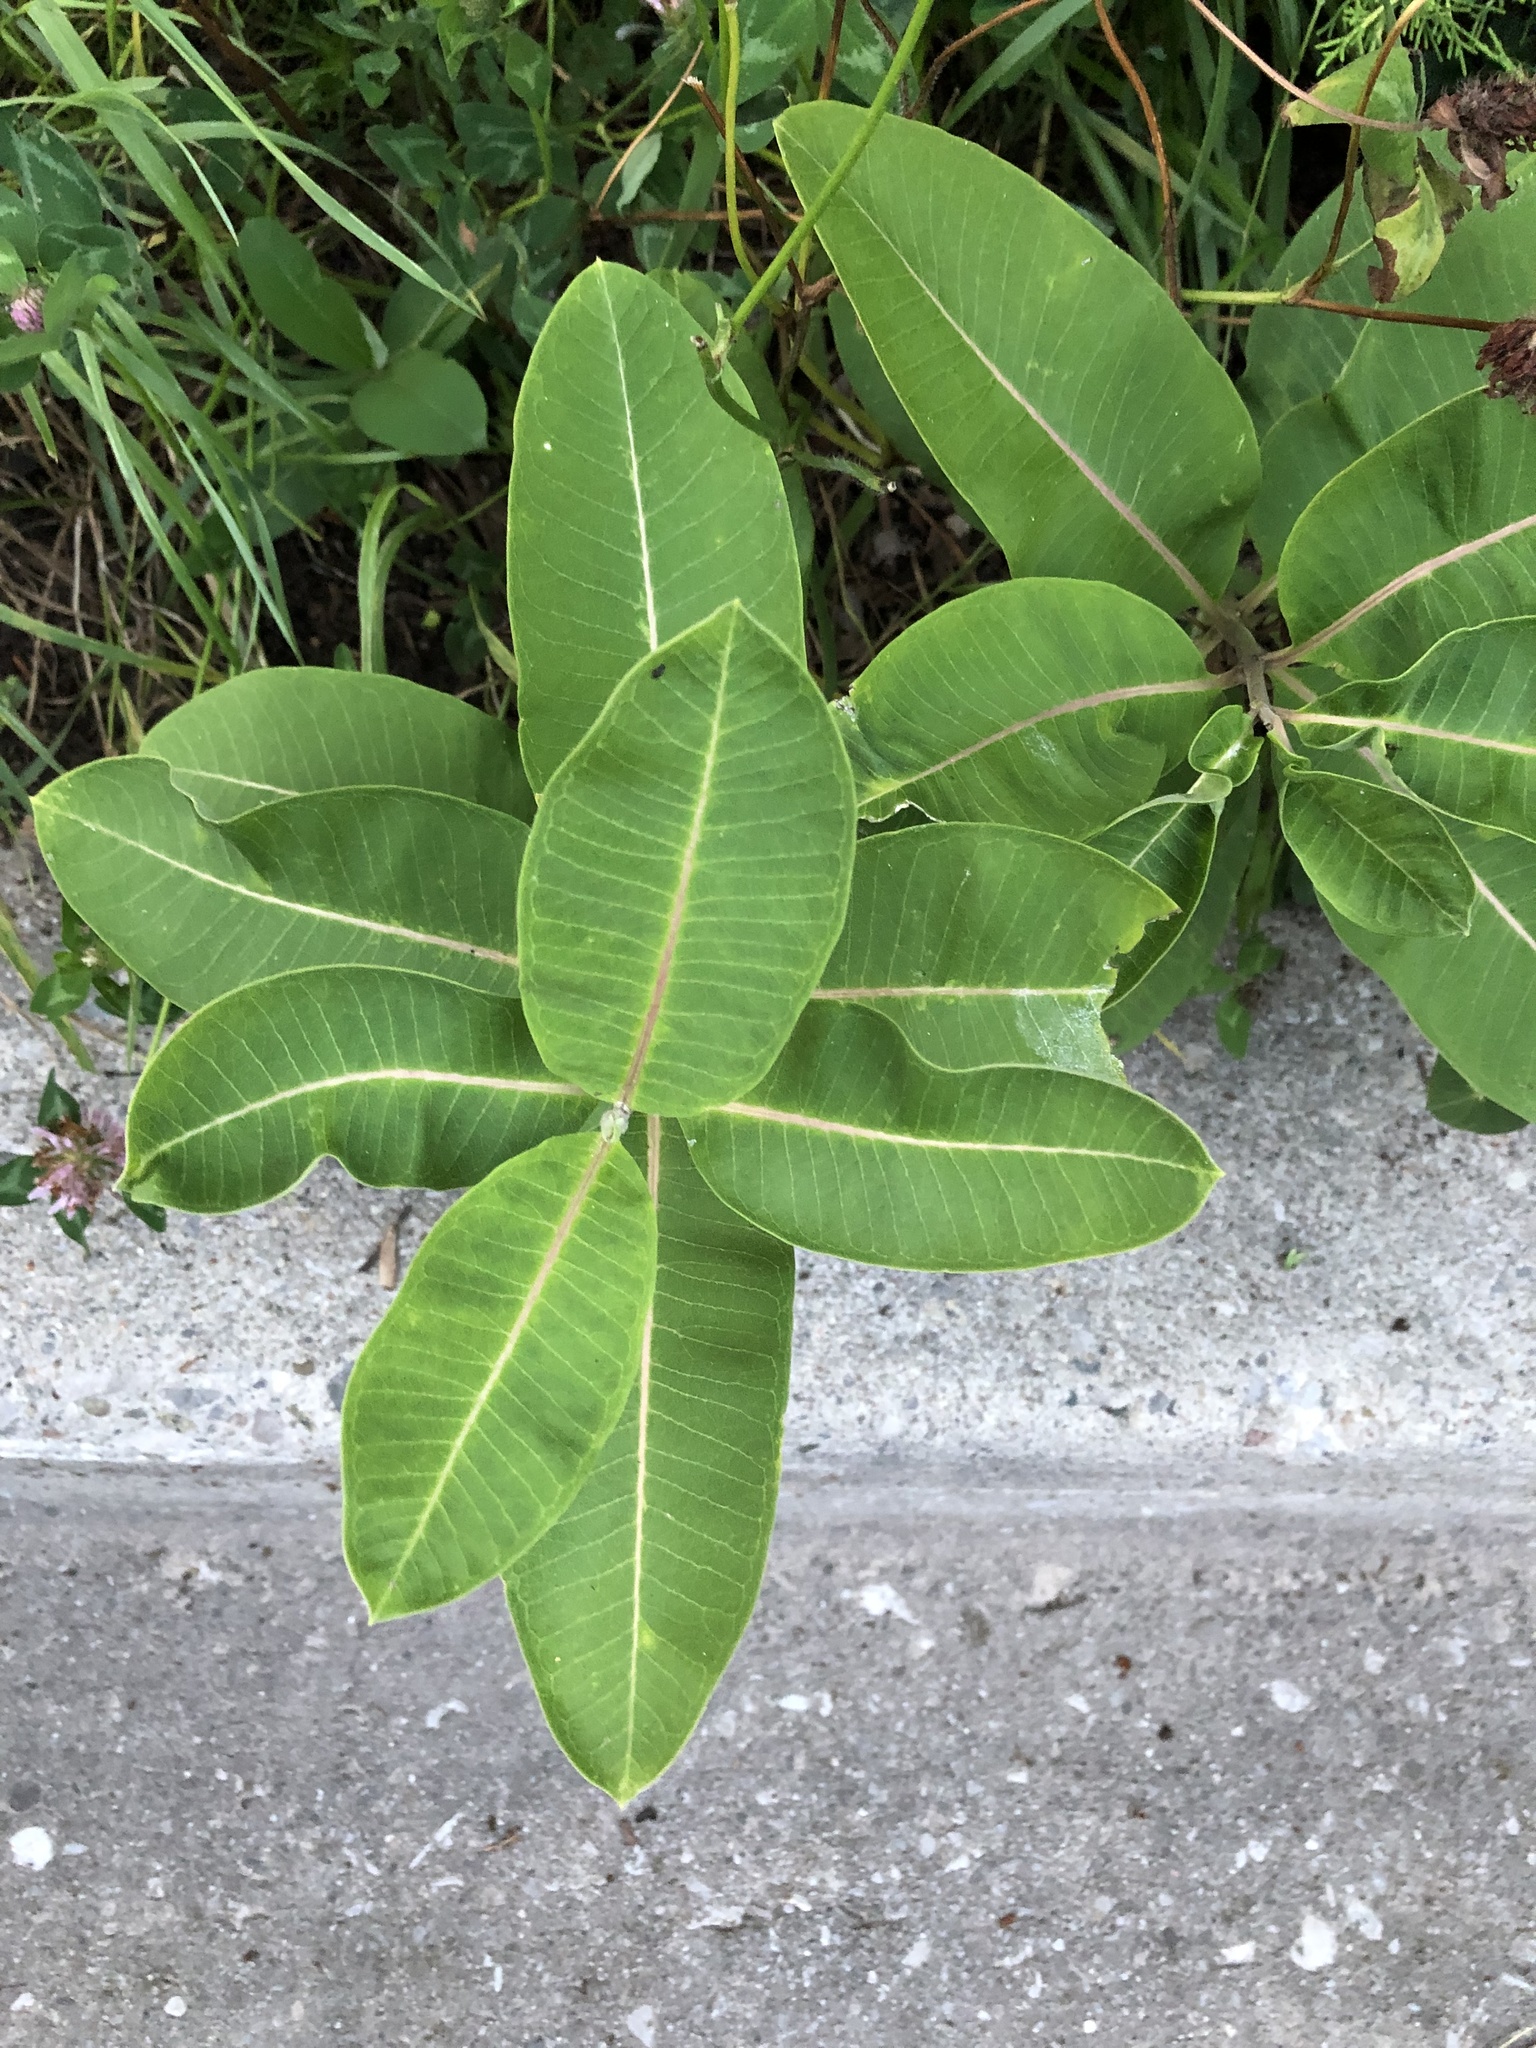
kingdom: Plantae
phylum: Tracheophyta
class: Magnoliopsida
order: Gentianales
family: Apocynaceae
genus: Asclepias
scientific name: Asclepias syriaca
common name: Common milkweed
